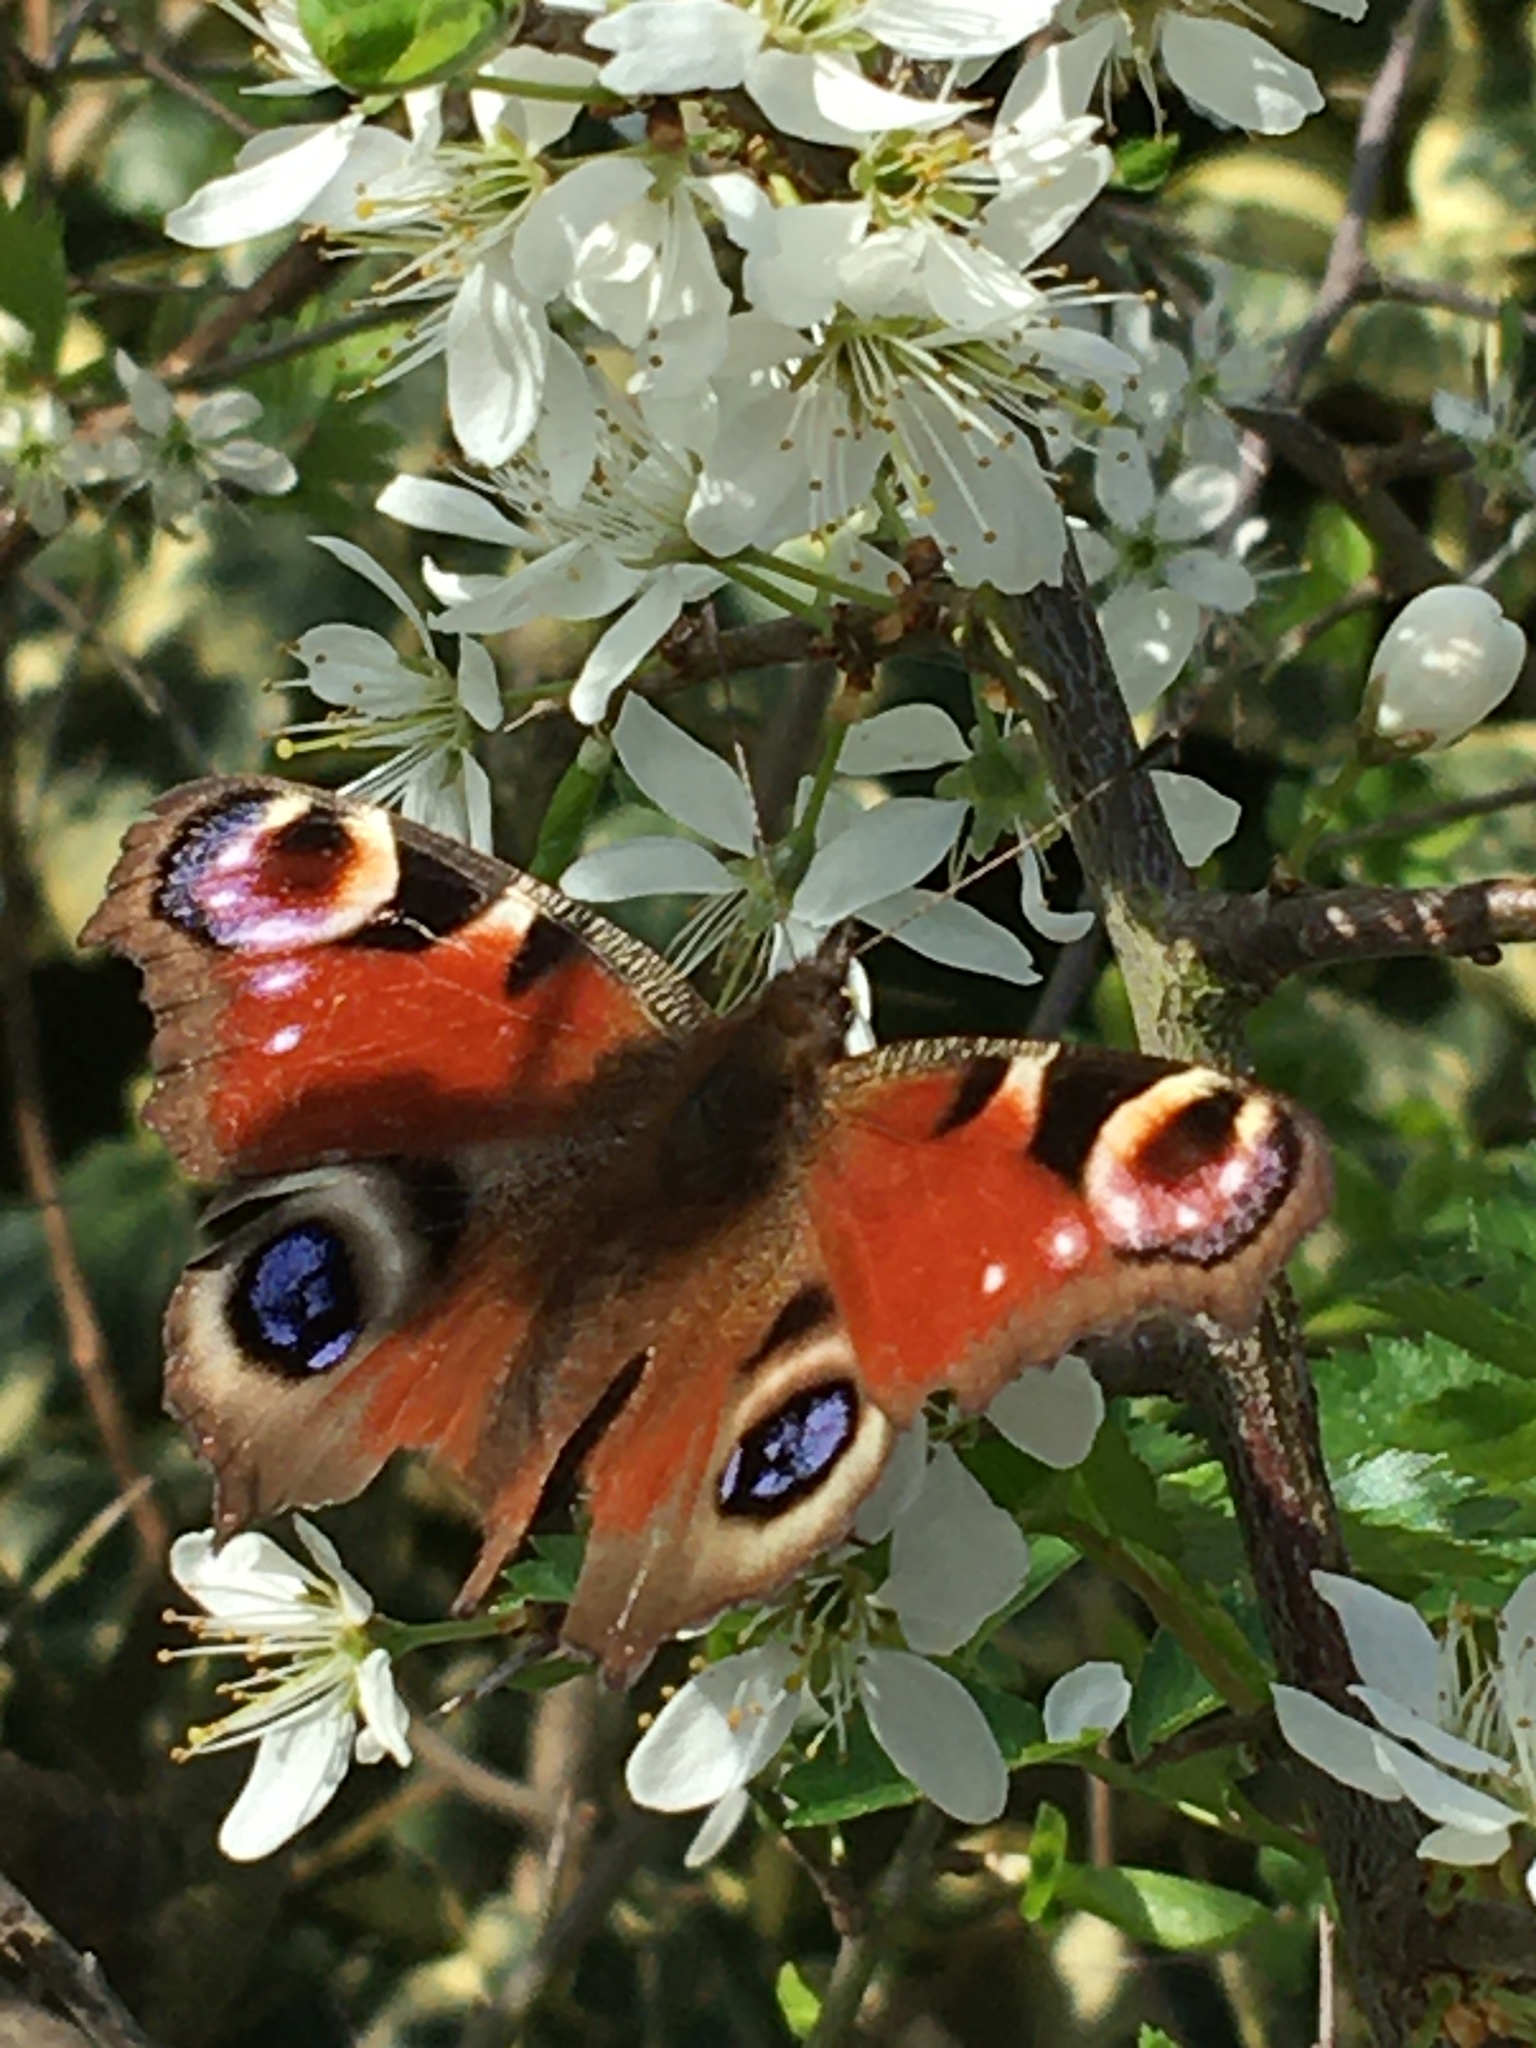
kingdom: Animalia
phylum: Arthropoda
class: Insecta
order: Lepidoptera
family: Nymphalidae
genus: Aglais
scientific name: Aglais io
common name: Peacock
